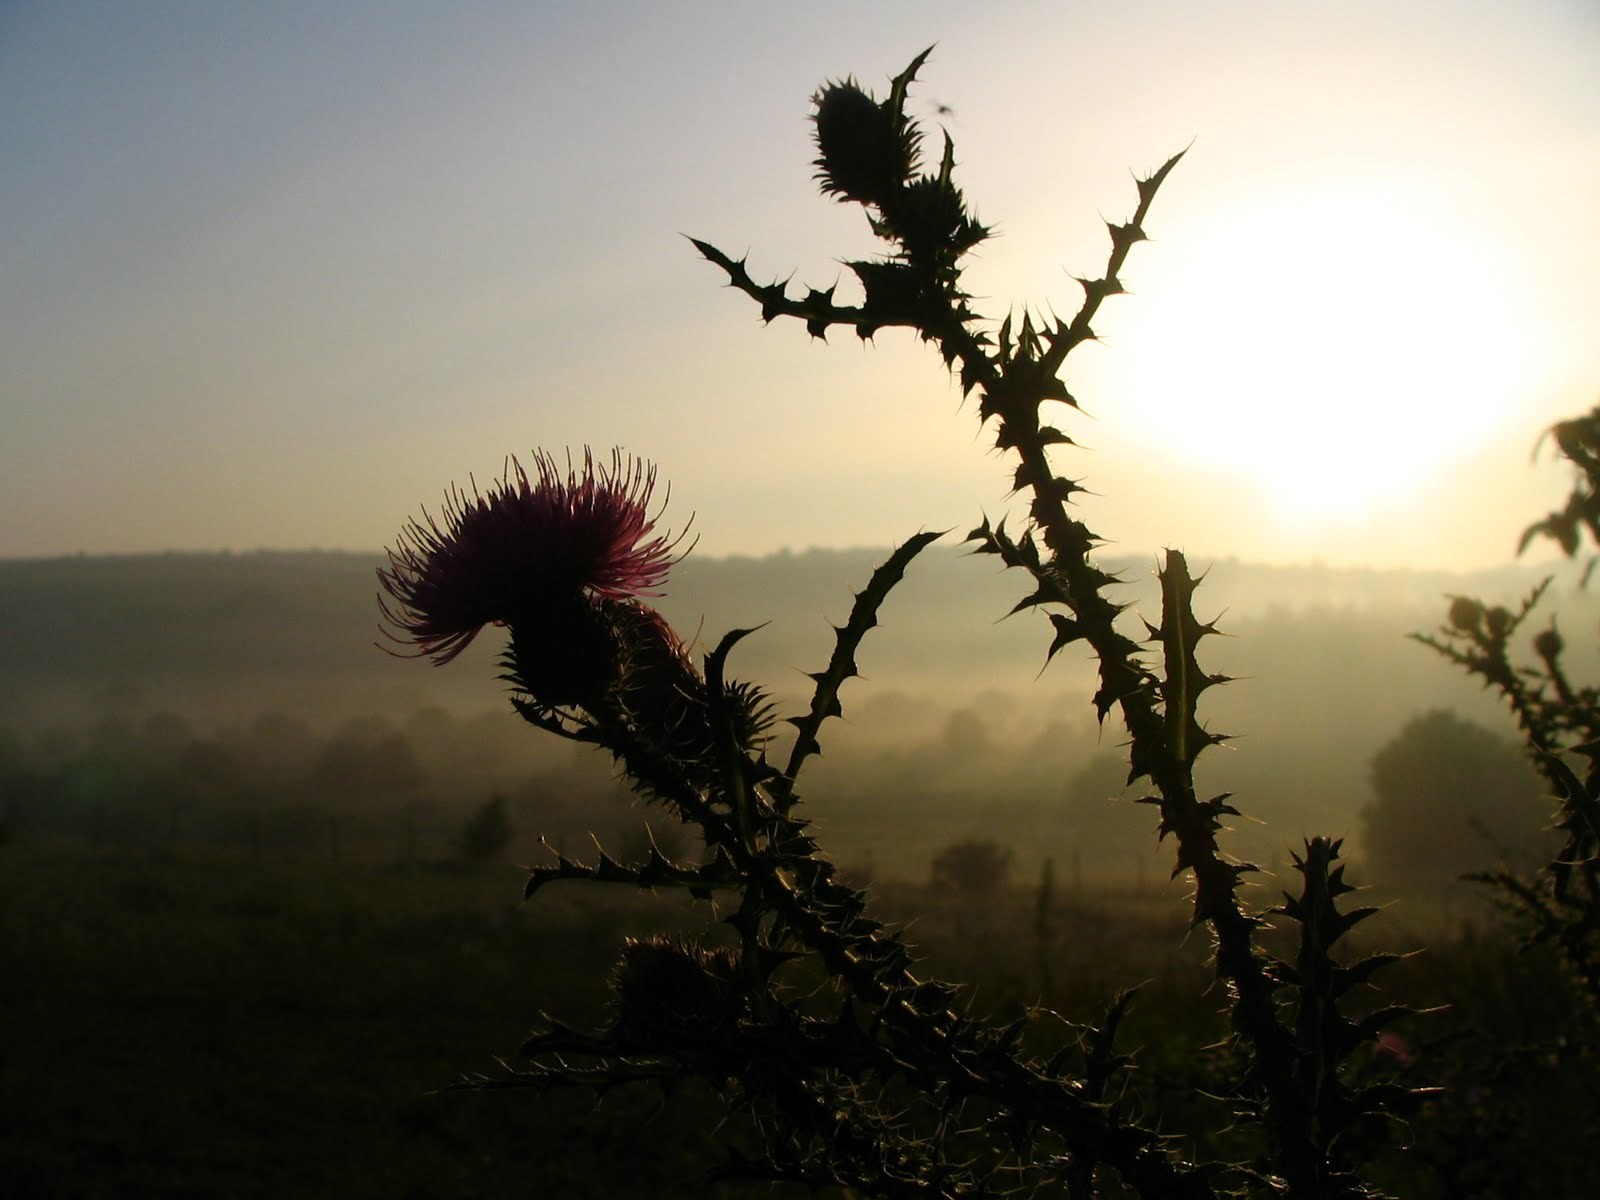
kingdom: Plantae
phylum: Tracheophyta
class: Magnoliopsida
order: Asterales
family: Asteraceae
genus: Carduus
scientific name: Carduus acanthoides
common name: Plumeless thistle
